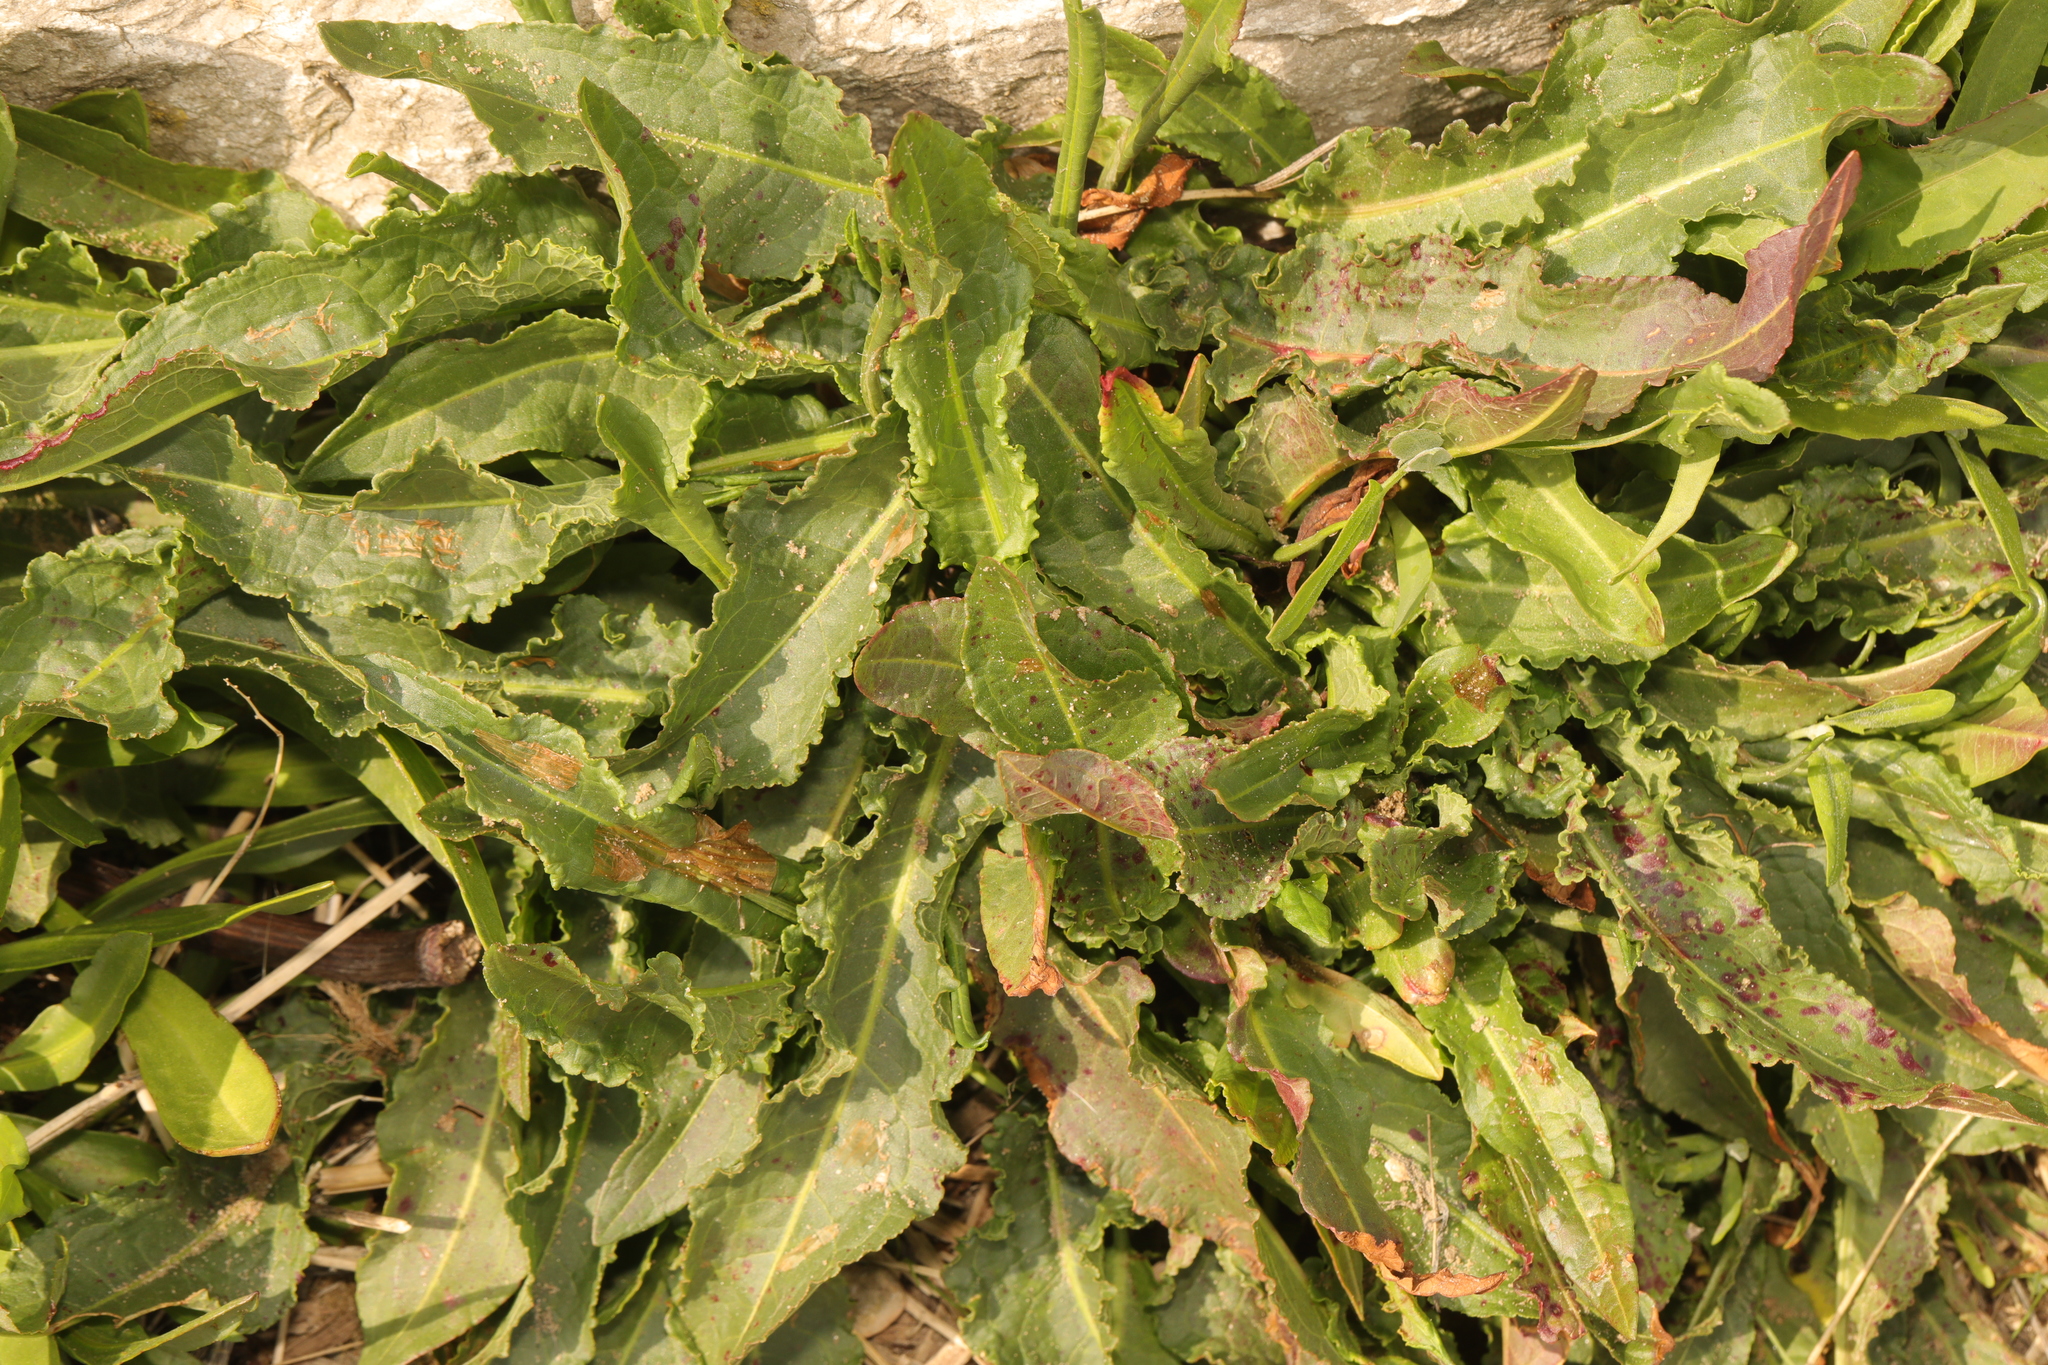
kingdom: Plantae
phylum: Tracheophyta
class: Magnoliopsida
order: Caryophyllales
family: Polygonaceae
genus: Rumex
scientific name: Rumex crispus
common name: Curled dock
